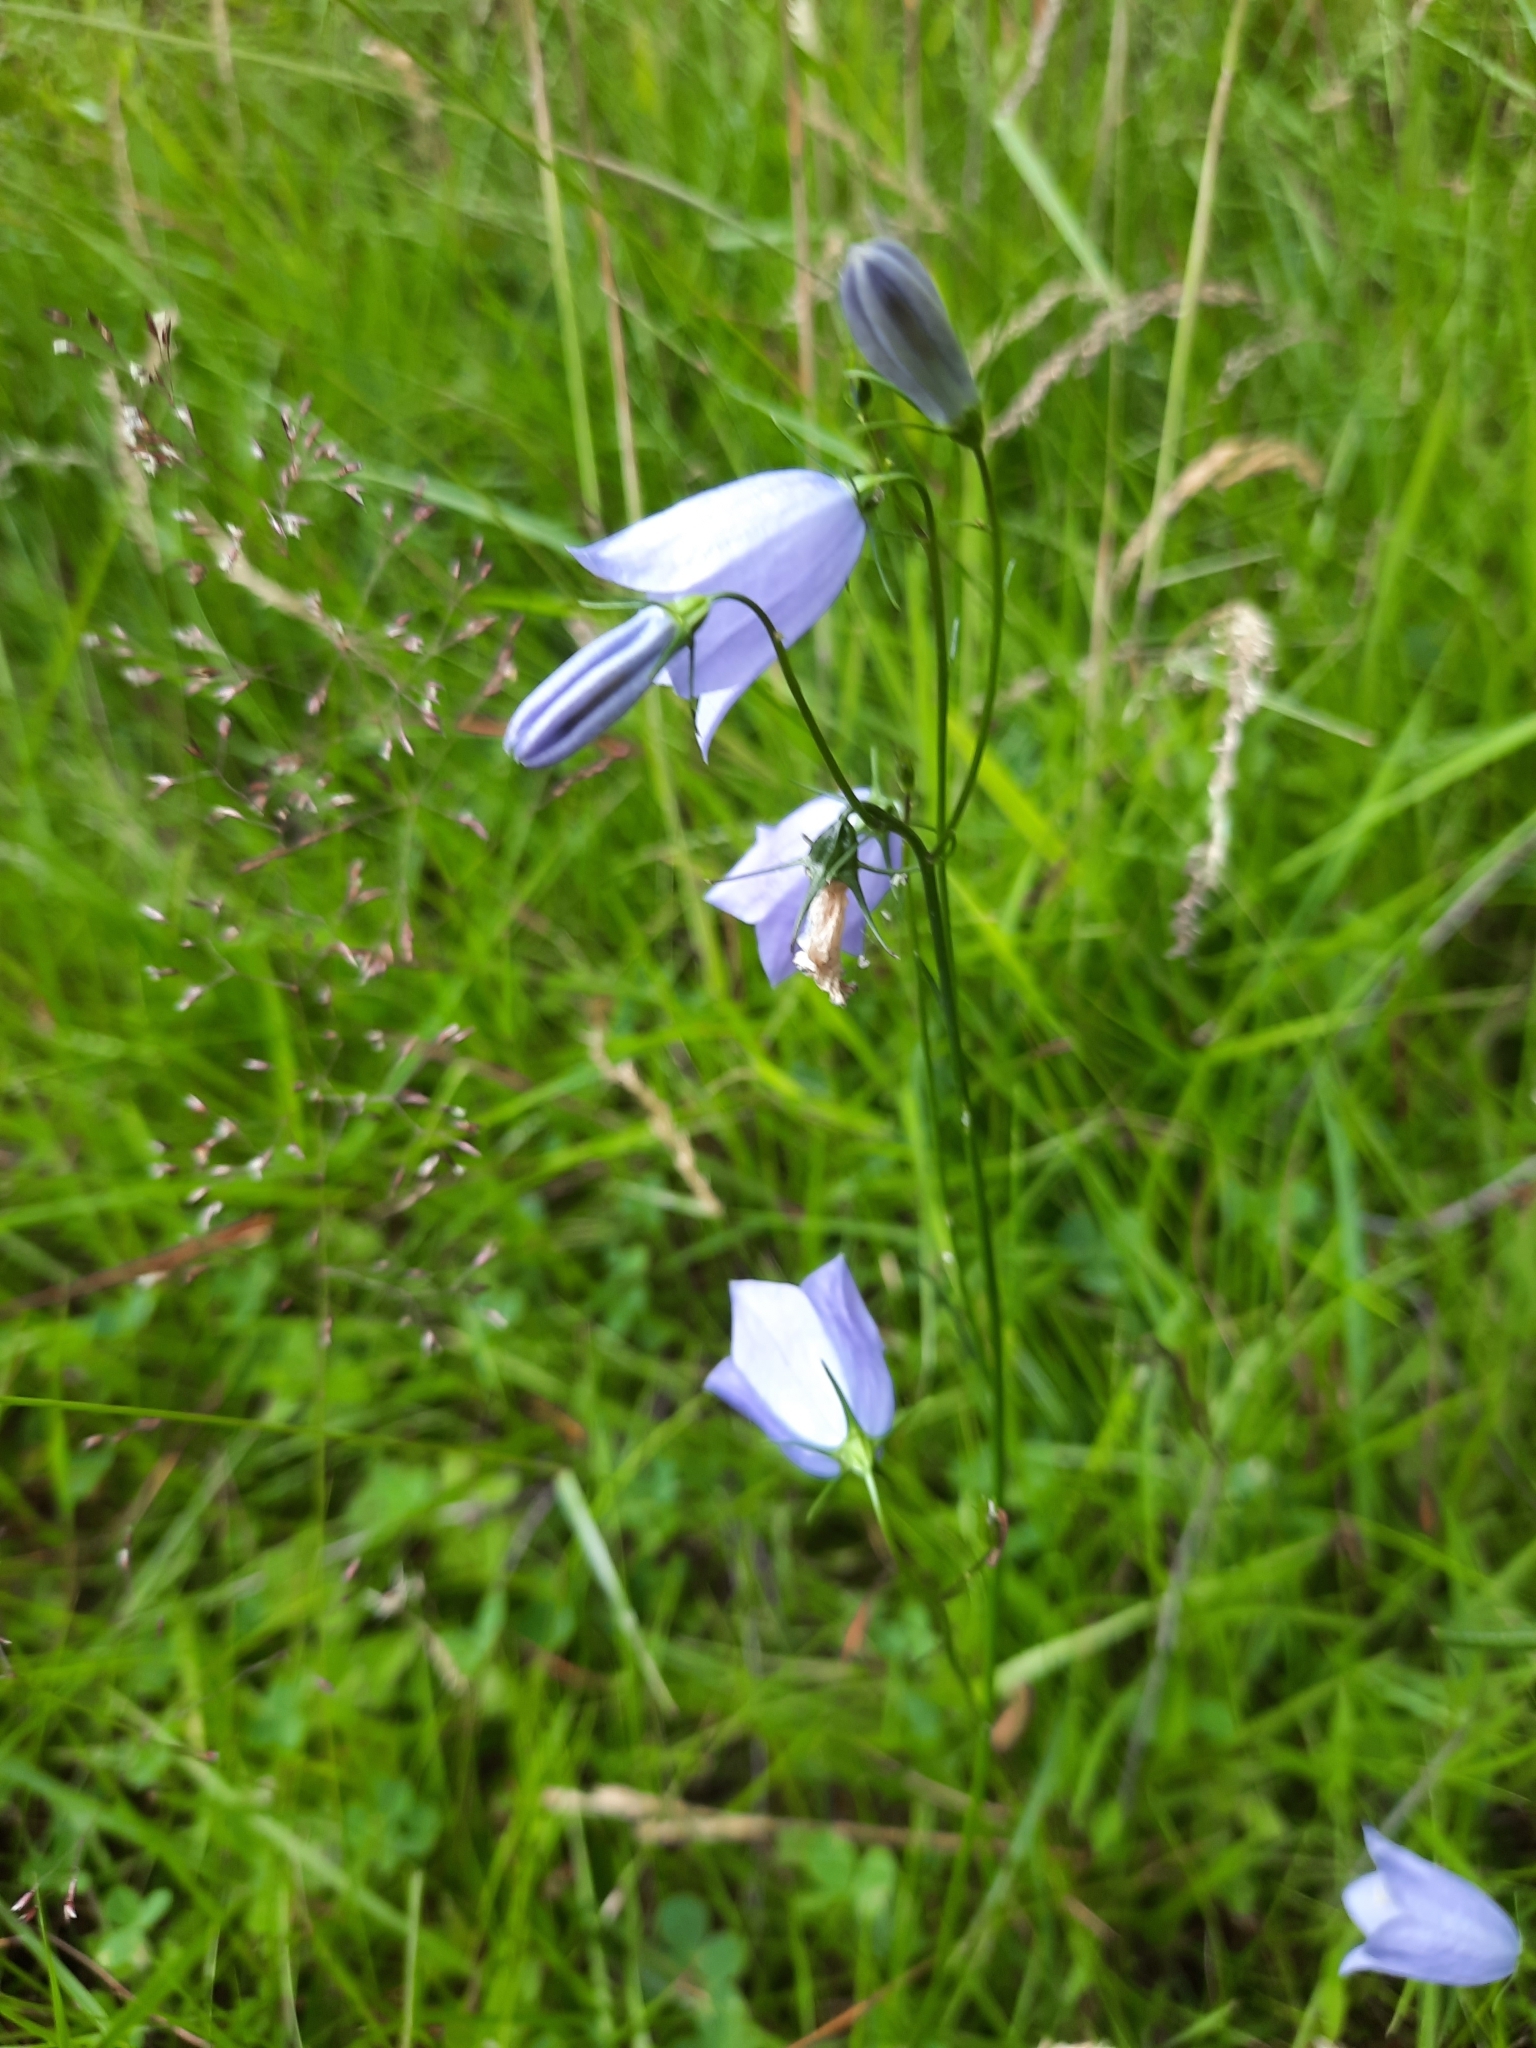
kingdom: Plantae
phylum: Tracheophyta
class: Magnoliopsida
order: Asterales
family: Campanulaceae
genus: Campanula
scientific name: Campanula rotundifolia
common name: Harebell
